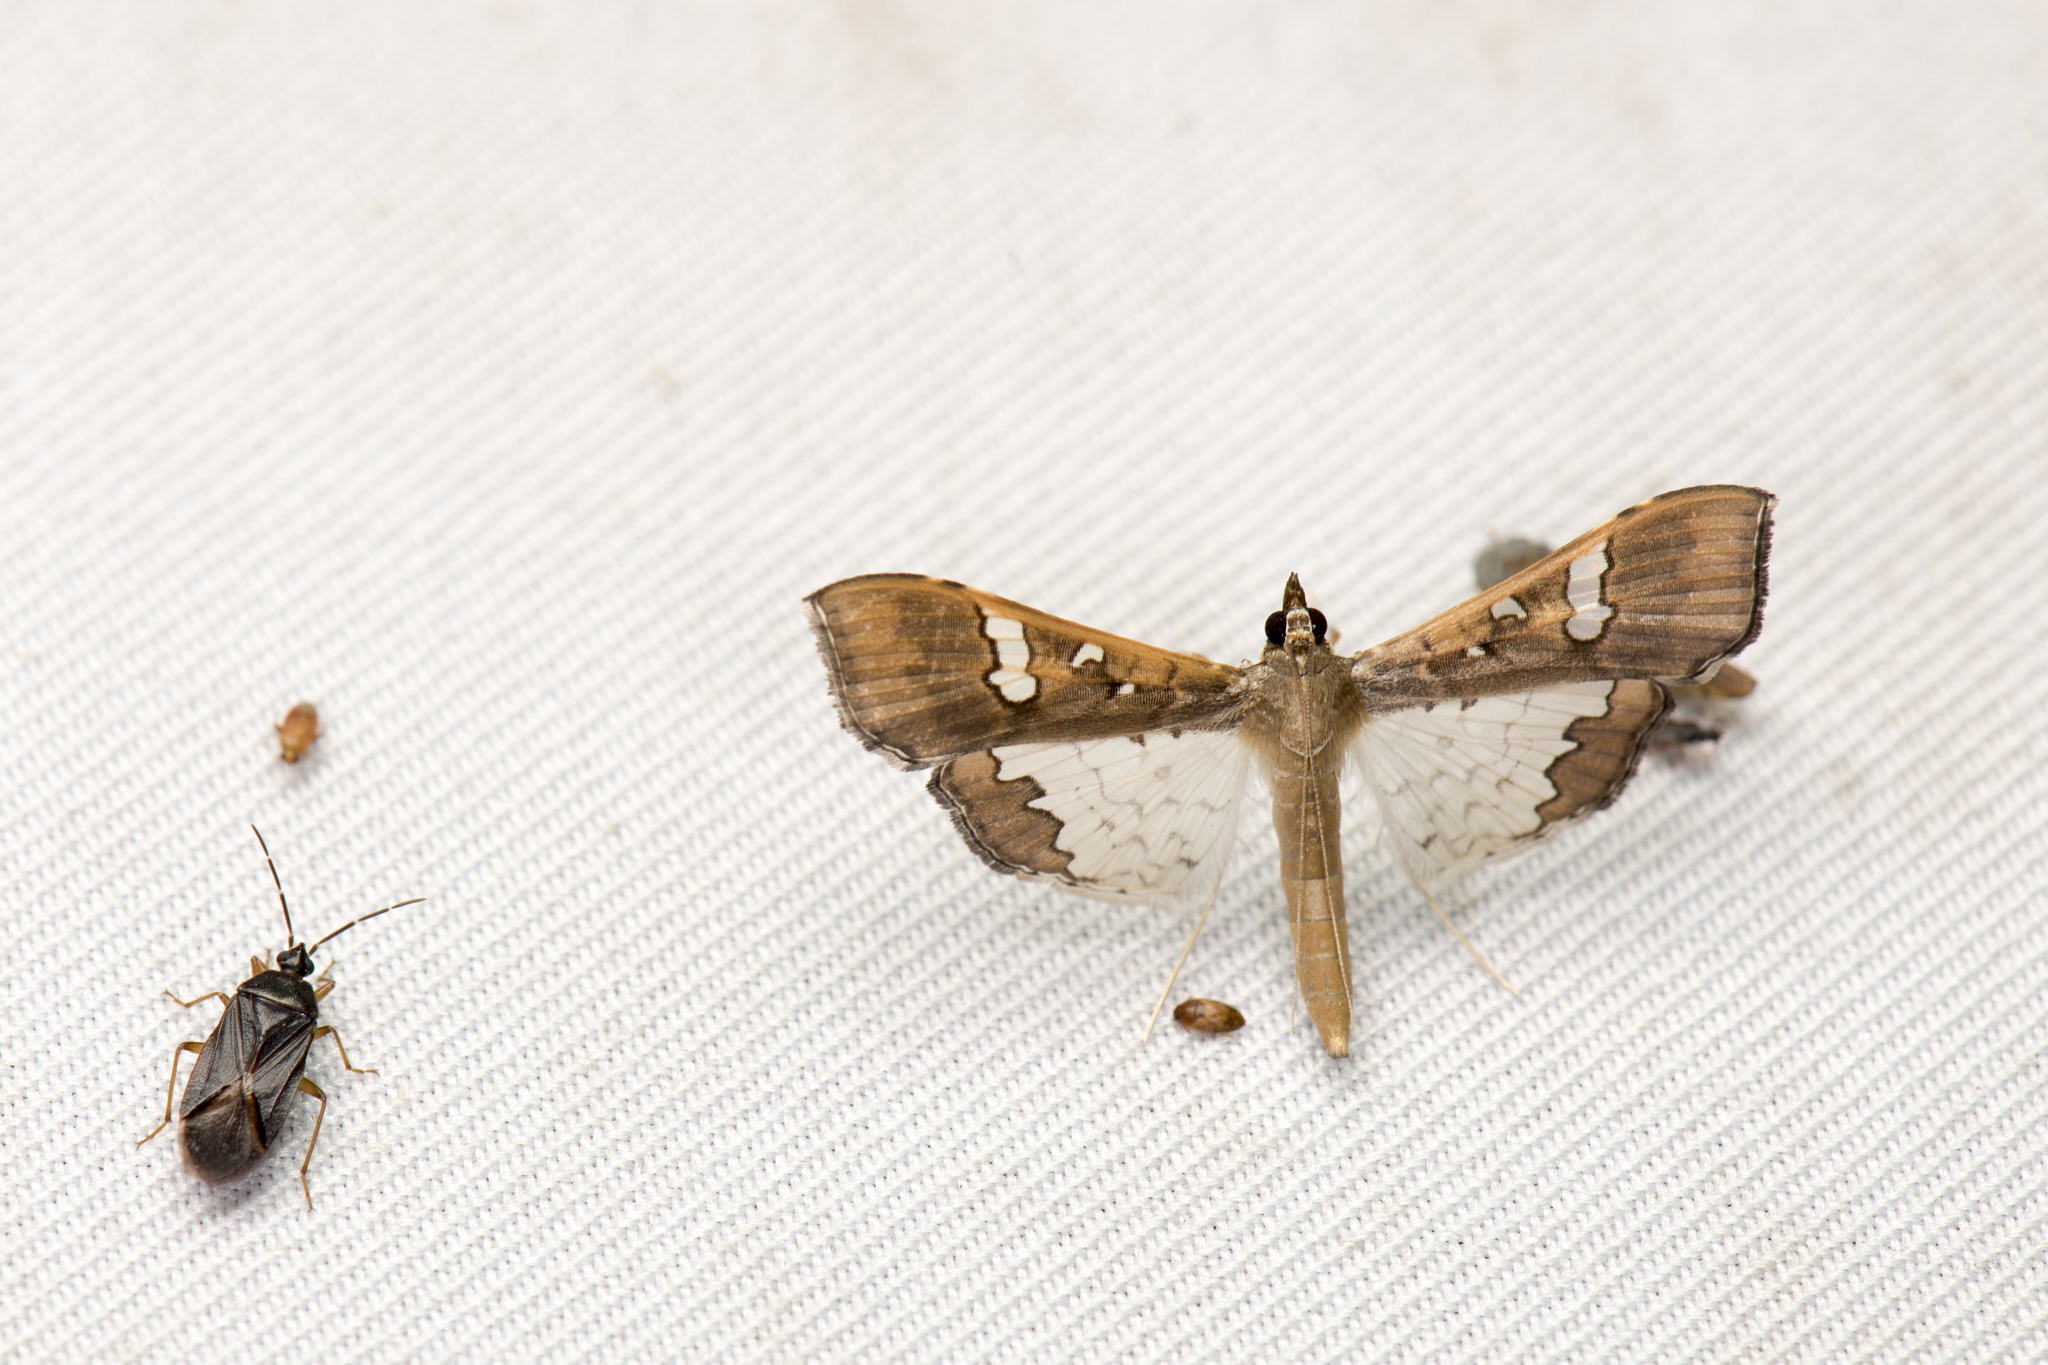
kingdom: Animalia
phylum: Arthropoda
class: Insecta
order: Lepidoptera
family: Crambidae
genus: Maruca
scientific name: Maruca vitrata
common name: Maruca pod borer
